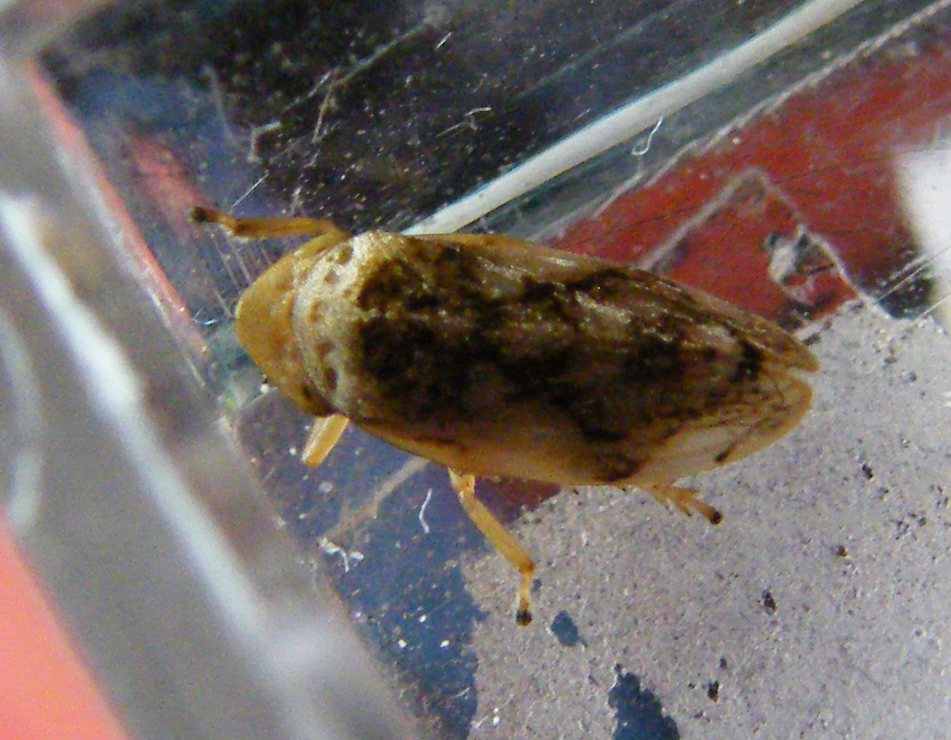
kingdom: Animalia
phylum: Arthropoda
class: Insecta
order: Hemiptera
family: Aphrophoridae
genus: Philaenus
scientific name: Philaenus spumarius
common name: Meadow spittlebug
